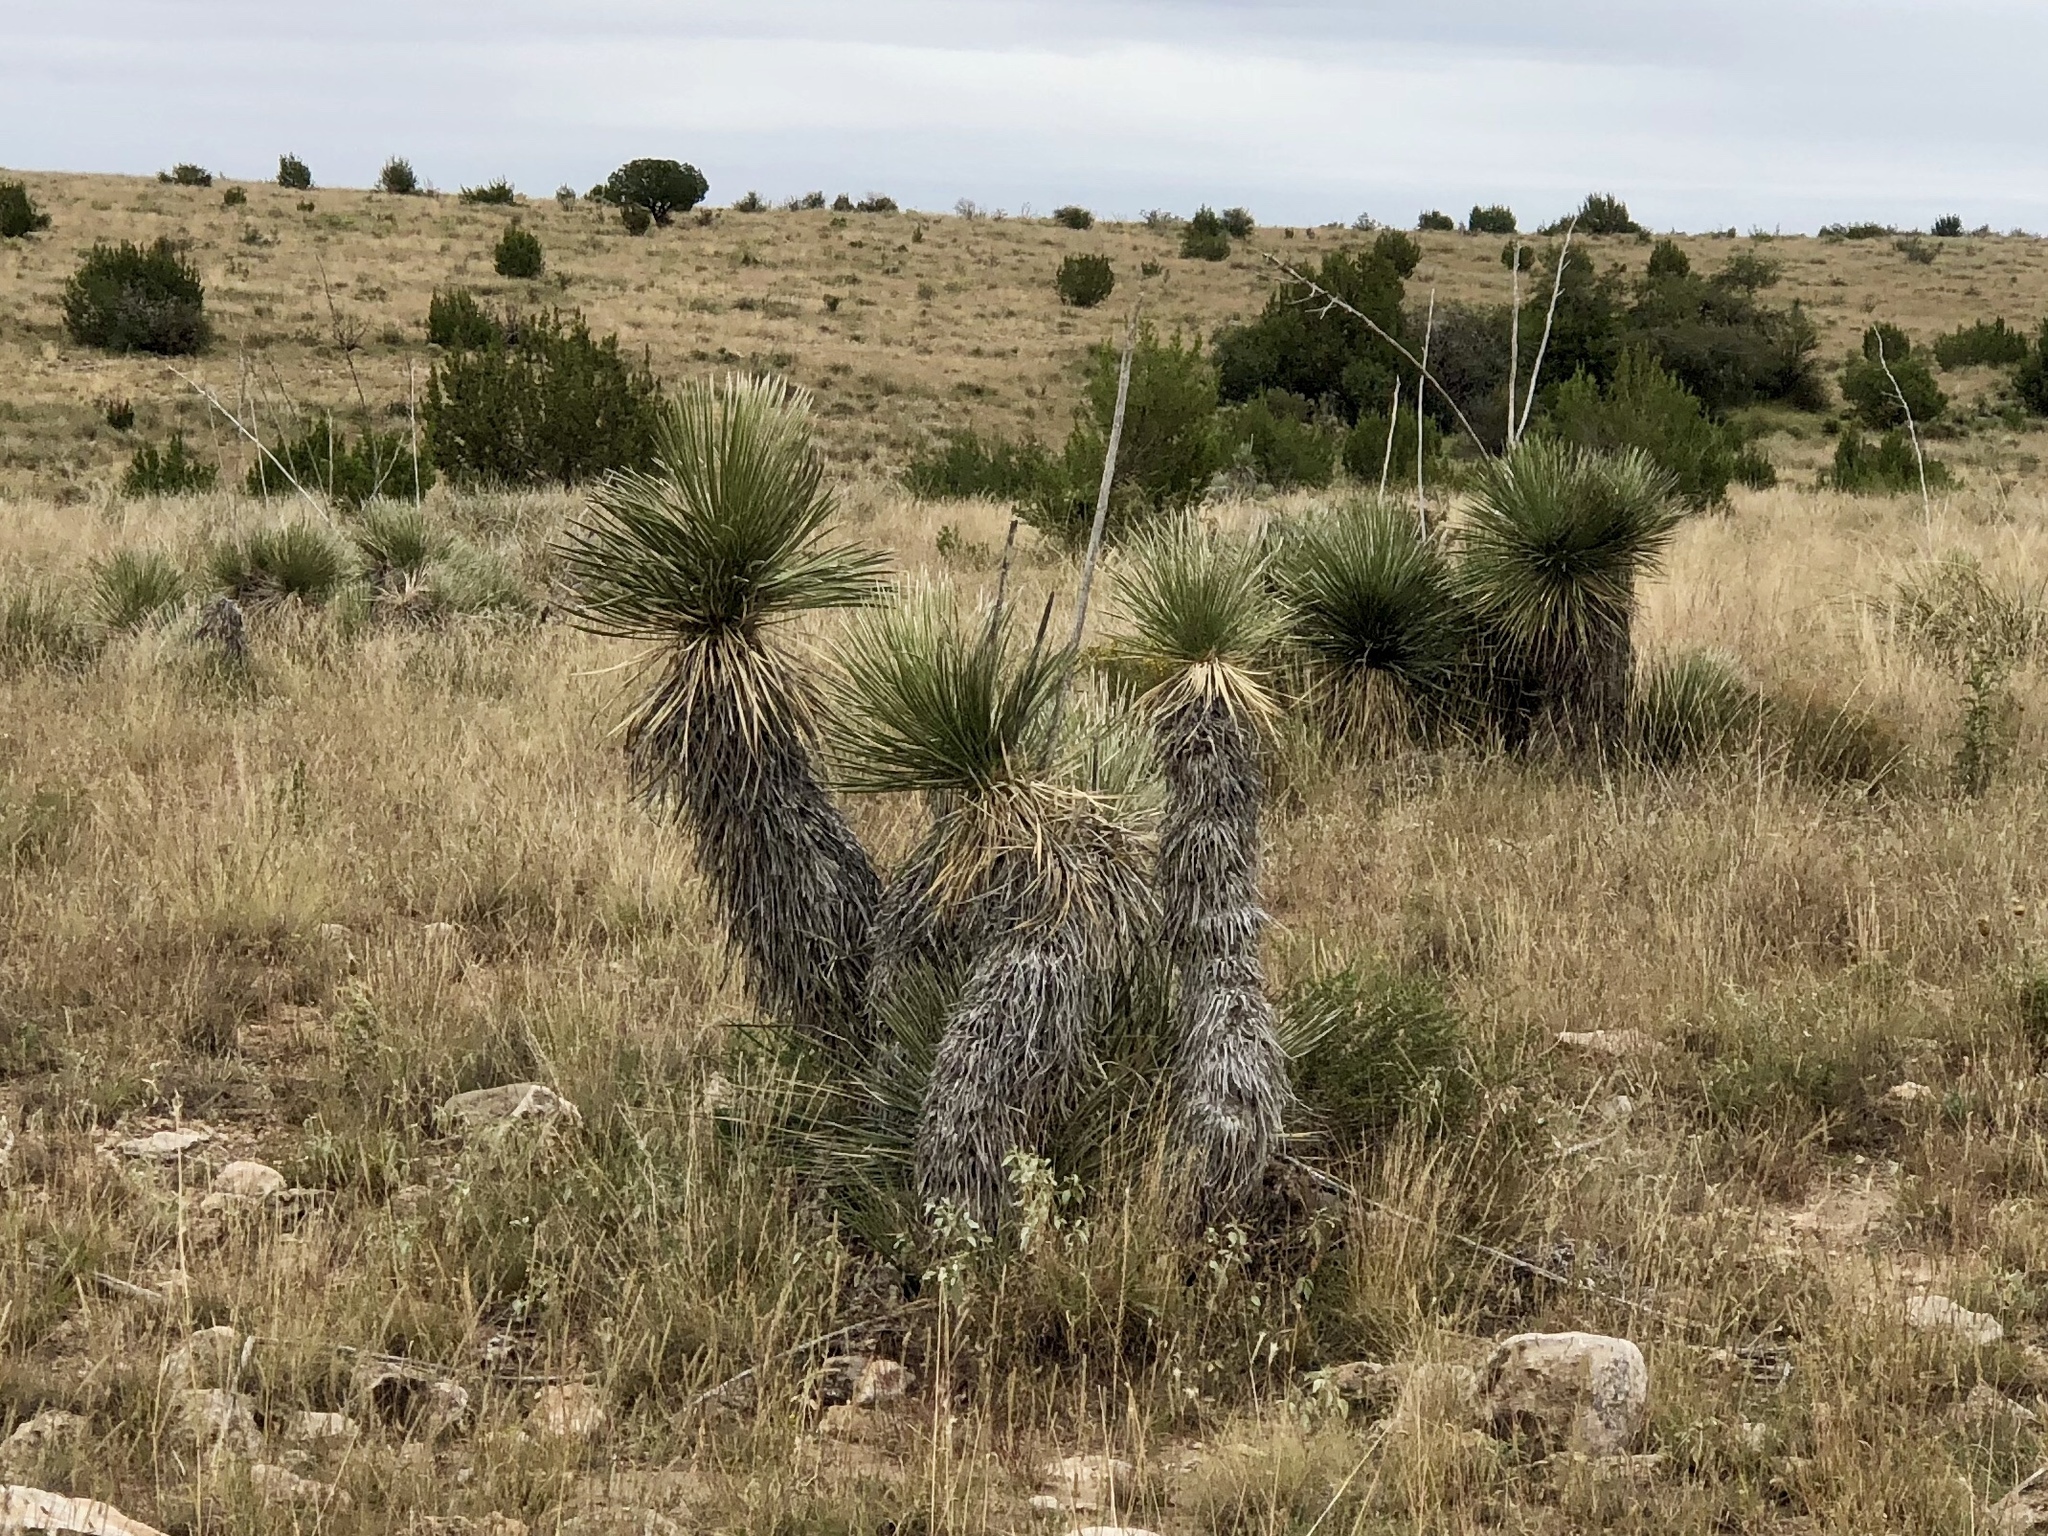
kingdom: Plantae
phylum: Tracheophyta
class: Liliopsida
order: Asparagales
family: Asparagaceae
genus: Yucca
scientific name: Yucca elata
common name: Palmella
